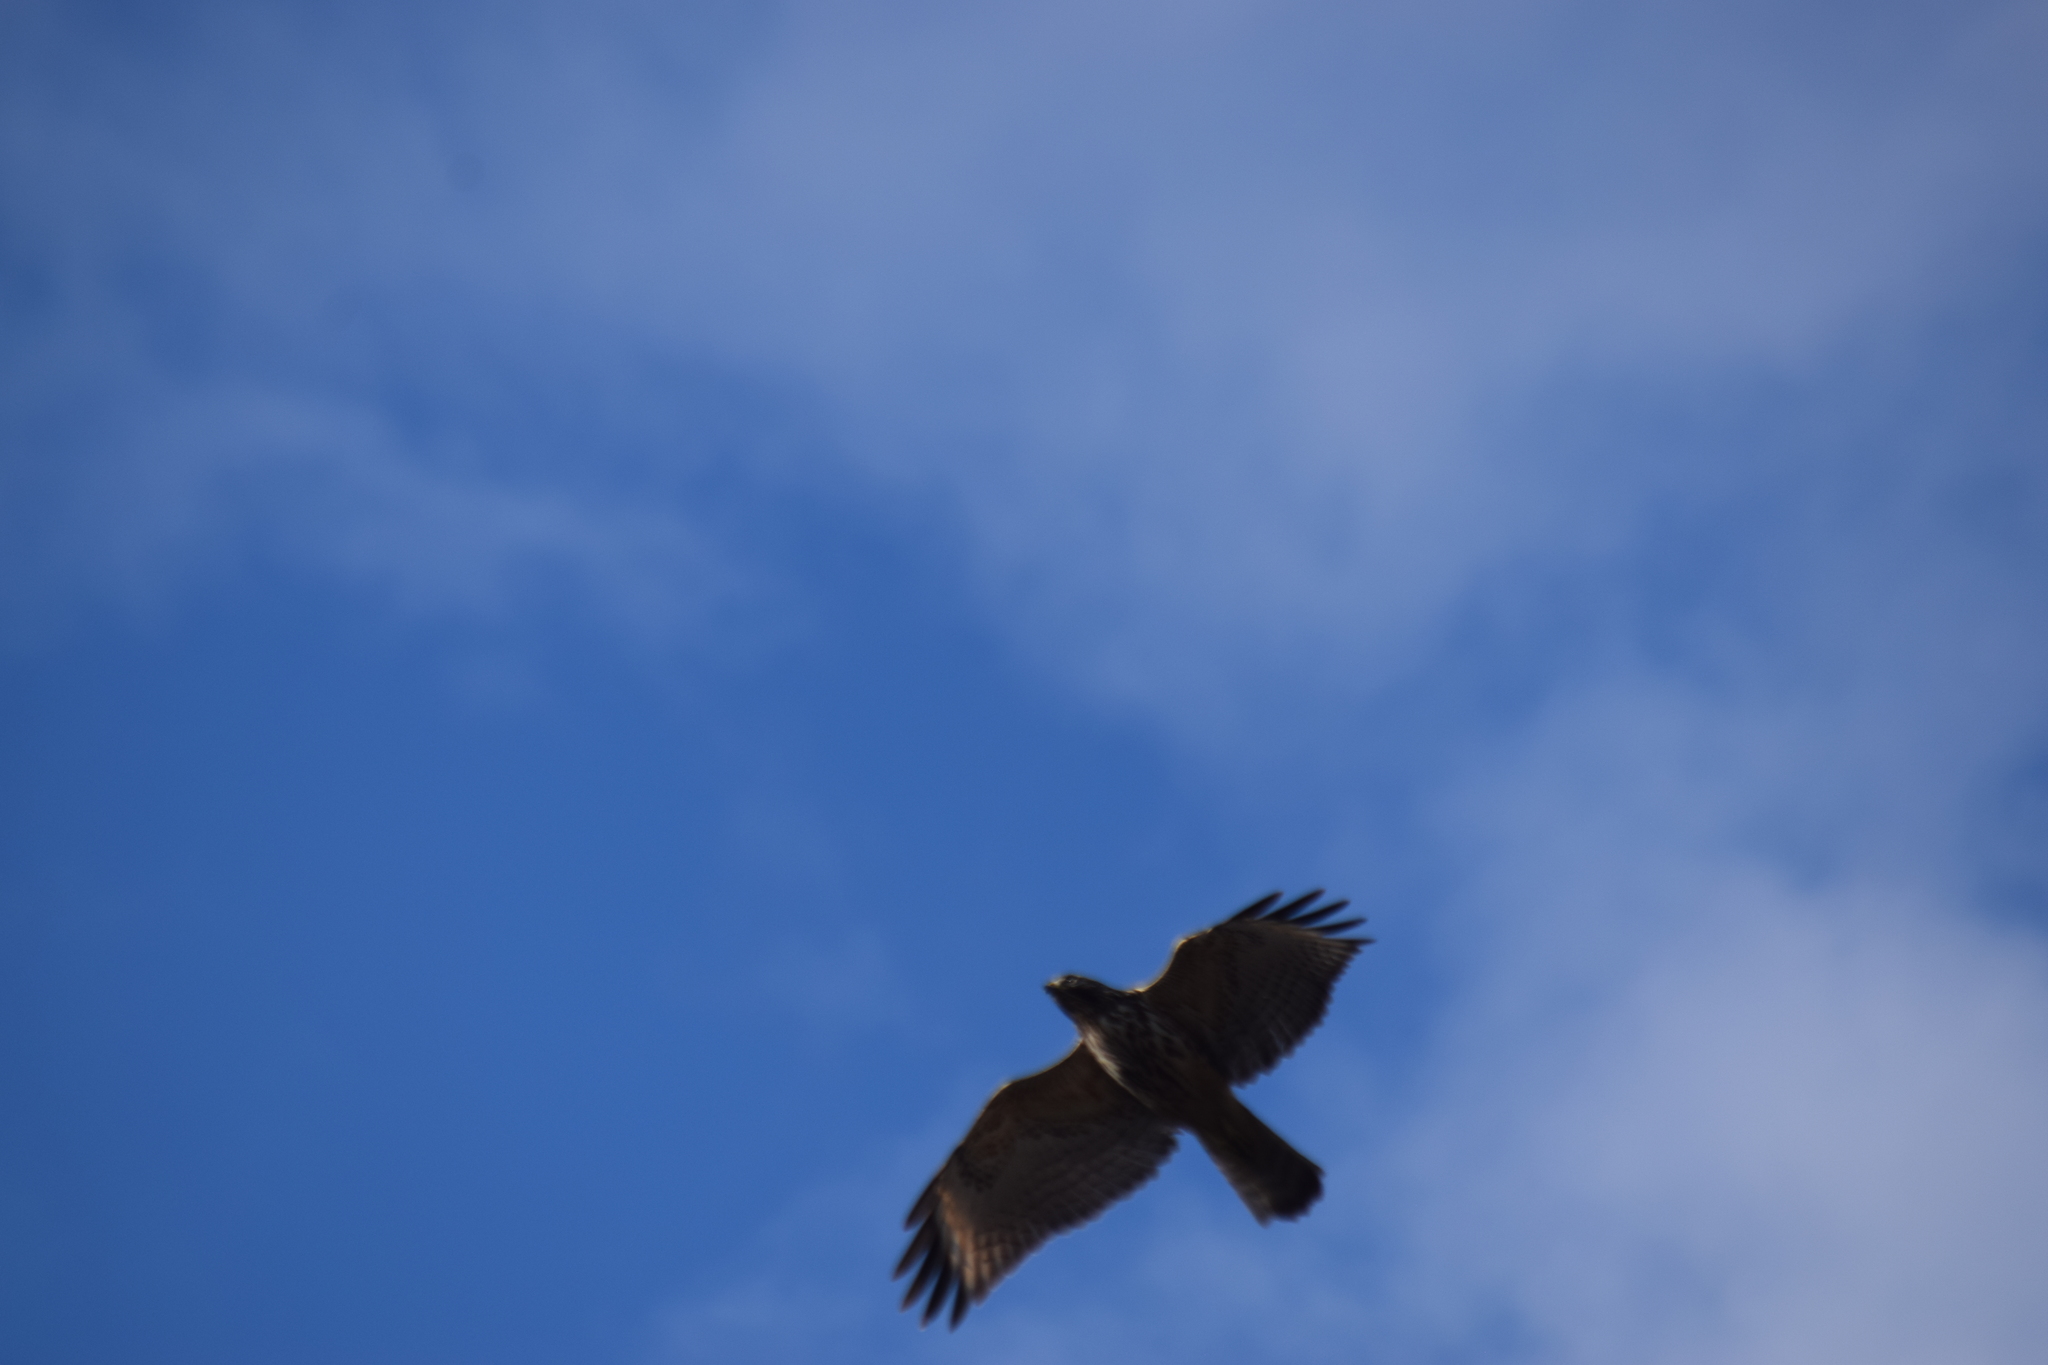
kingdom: Animalia
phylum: Chordata
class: Aves
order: Accipitriformes
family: Accipitridae
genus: Buteo
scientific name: Buteo lineatus
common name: Red-shouldered hawk
